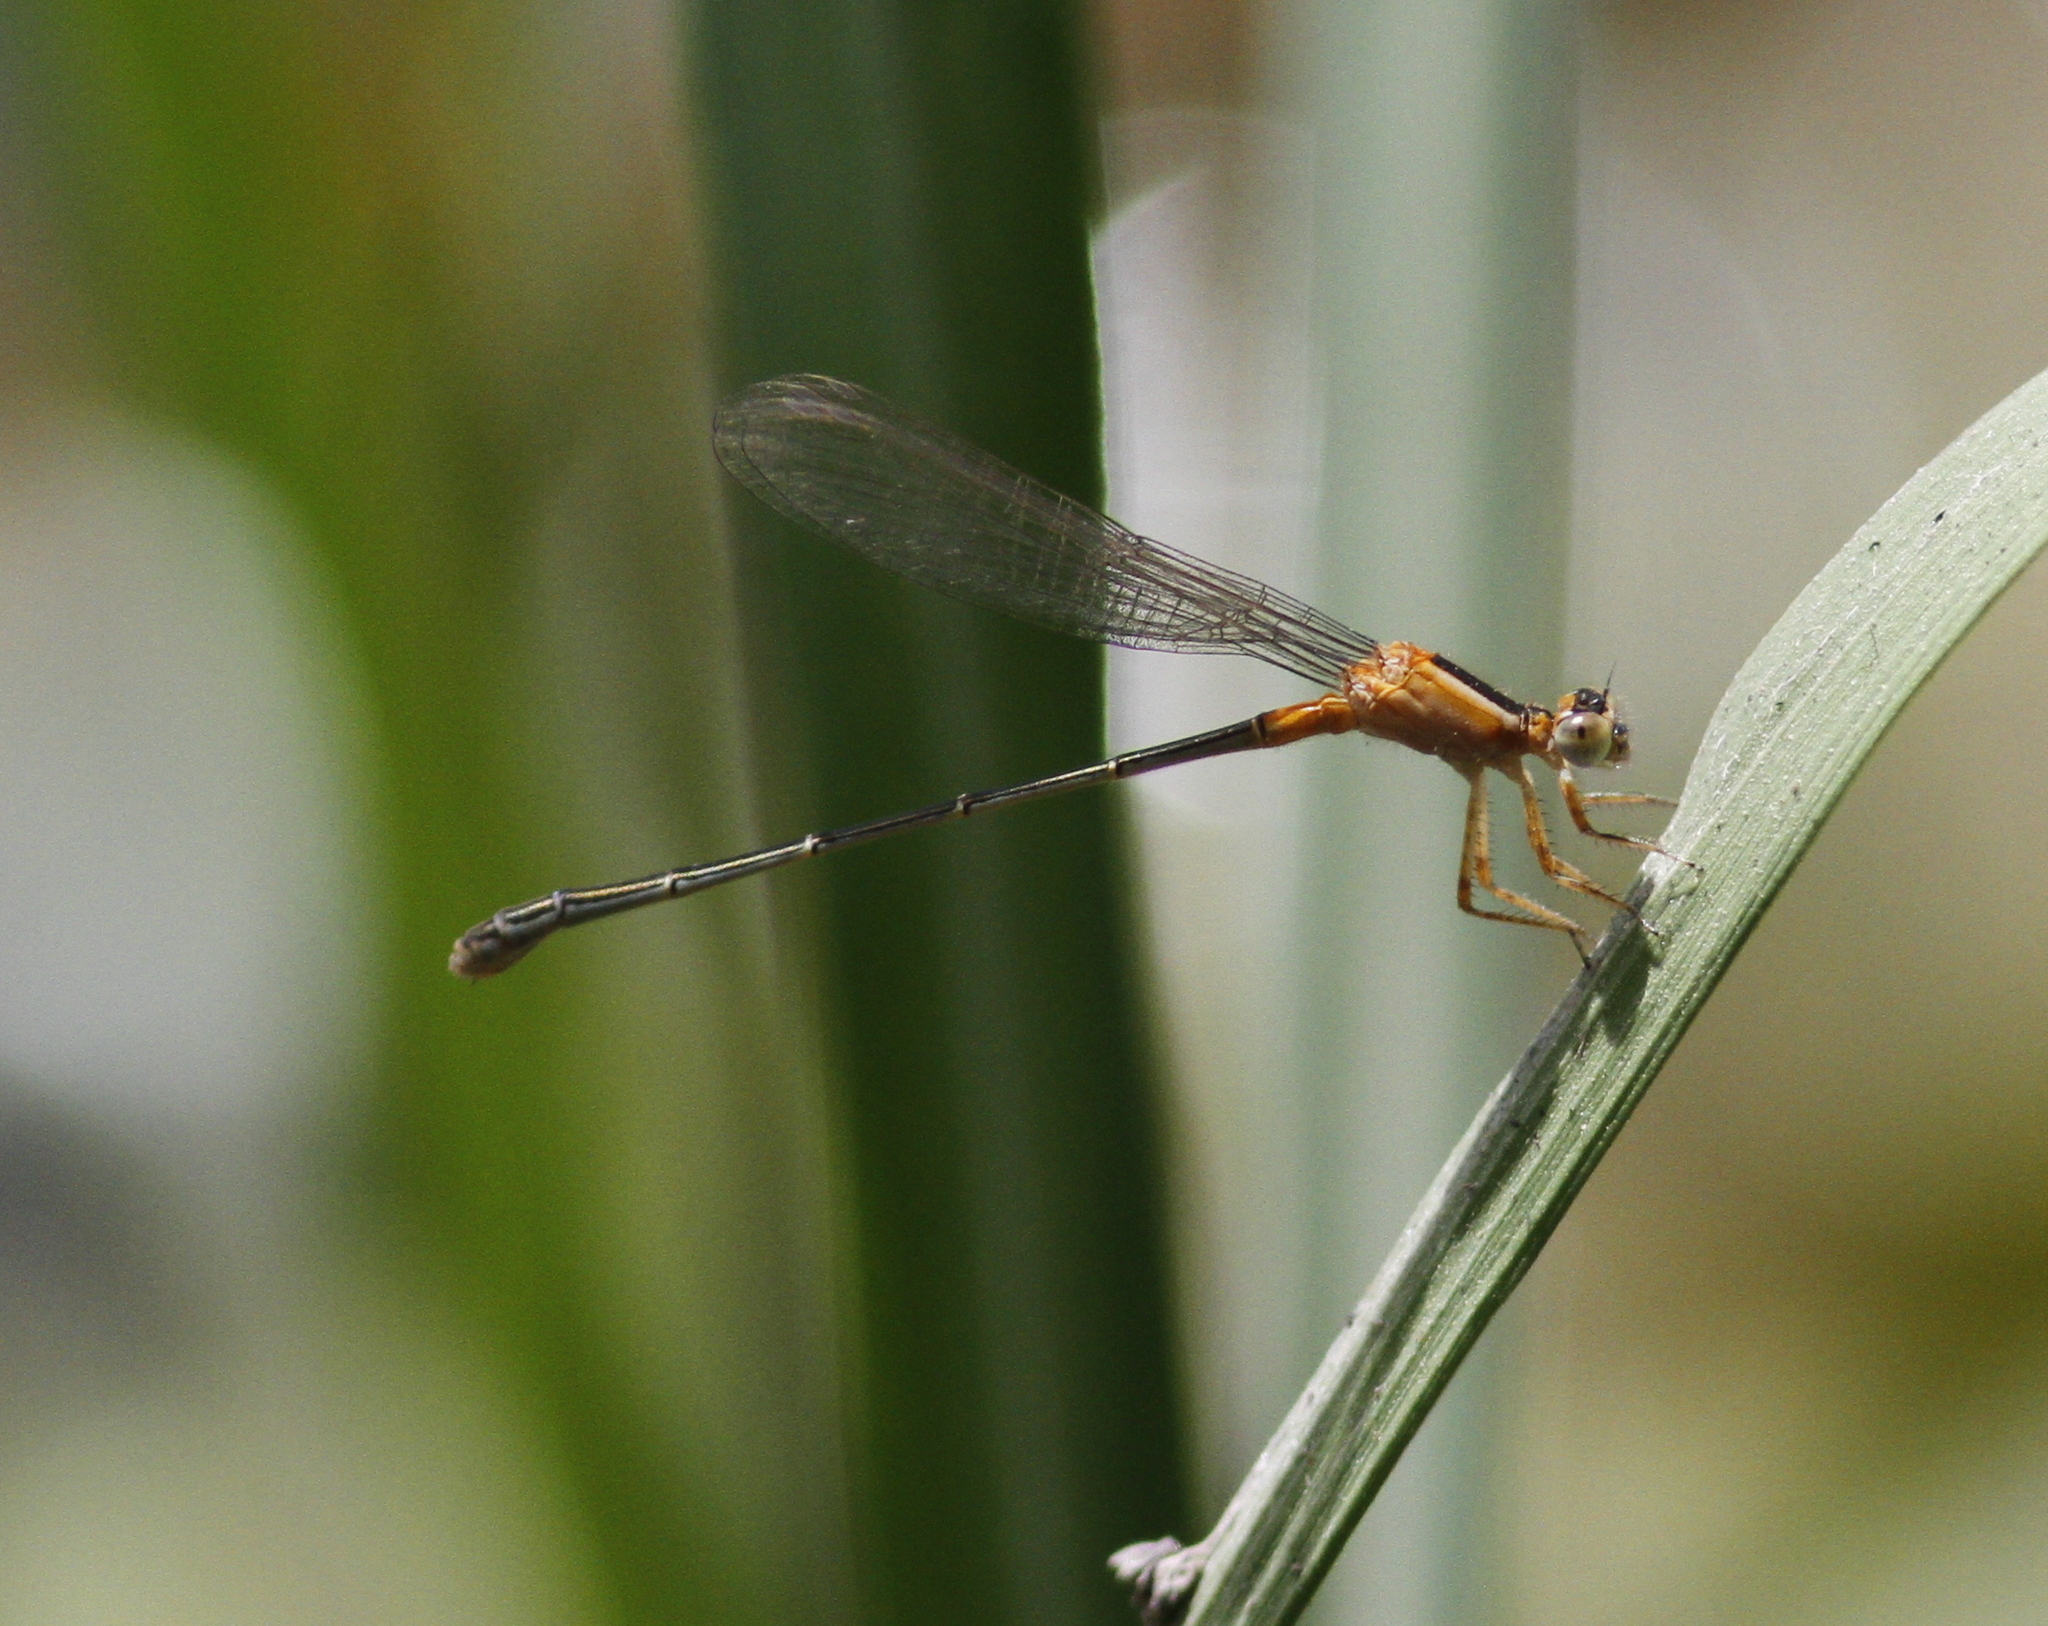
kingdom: Animalia
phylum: Arthropoda
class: Insecta
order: Odonata
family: Coenagrionidae
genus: Ischnura
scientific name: Ischnura senegalensis
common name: Tropical bluetail
